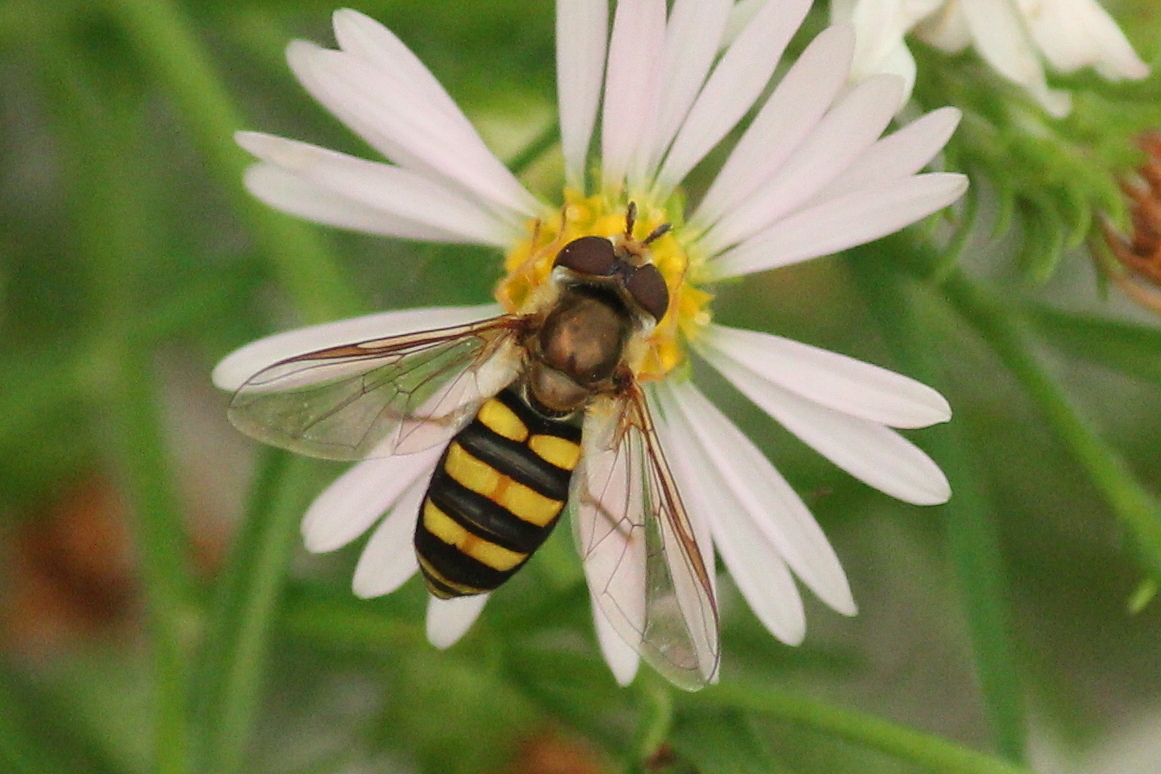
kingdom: Animalia
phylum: Arthropoda
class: Insecta
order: Diptera
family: Syrphidae
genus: Eupeodes
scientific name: Eupeodes
